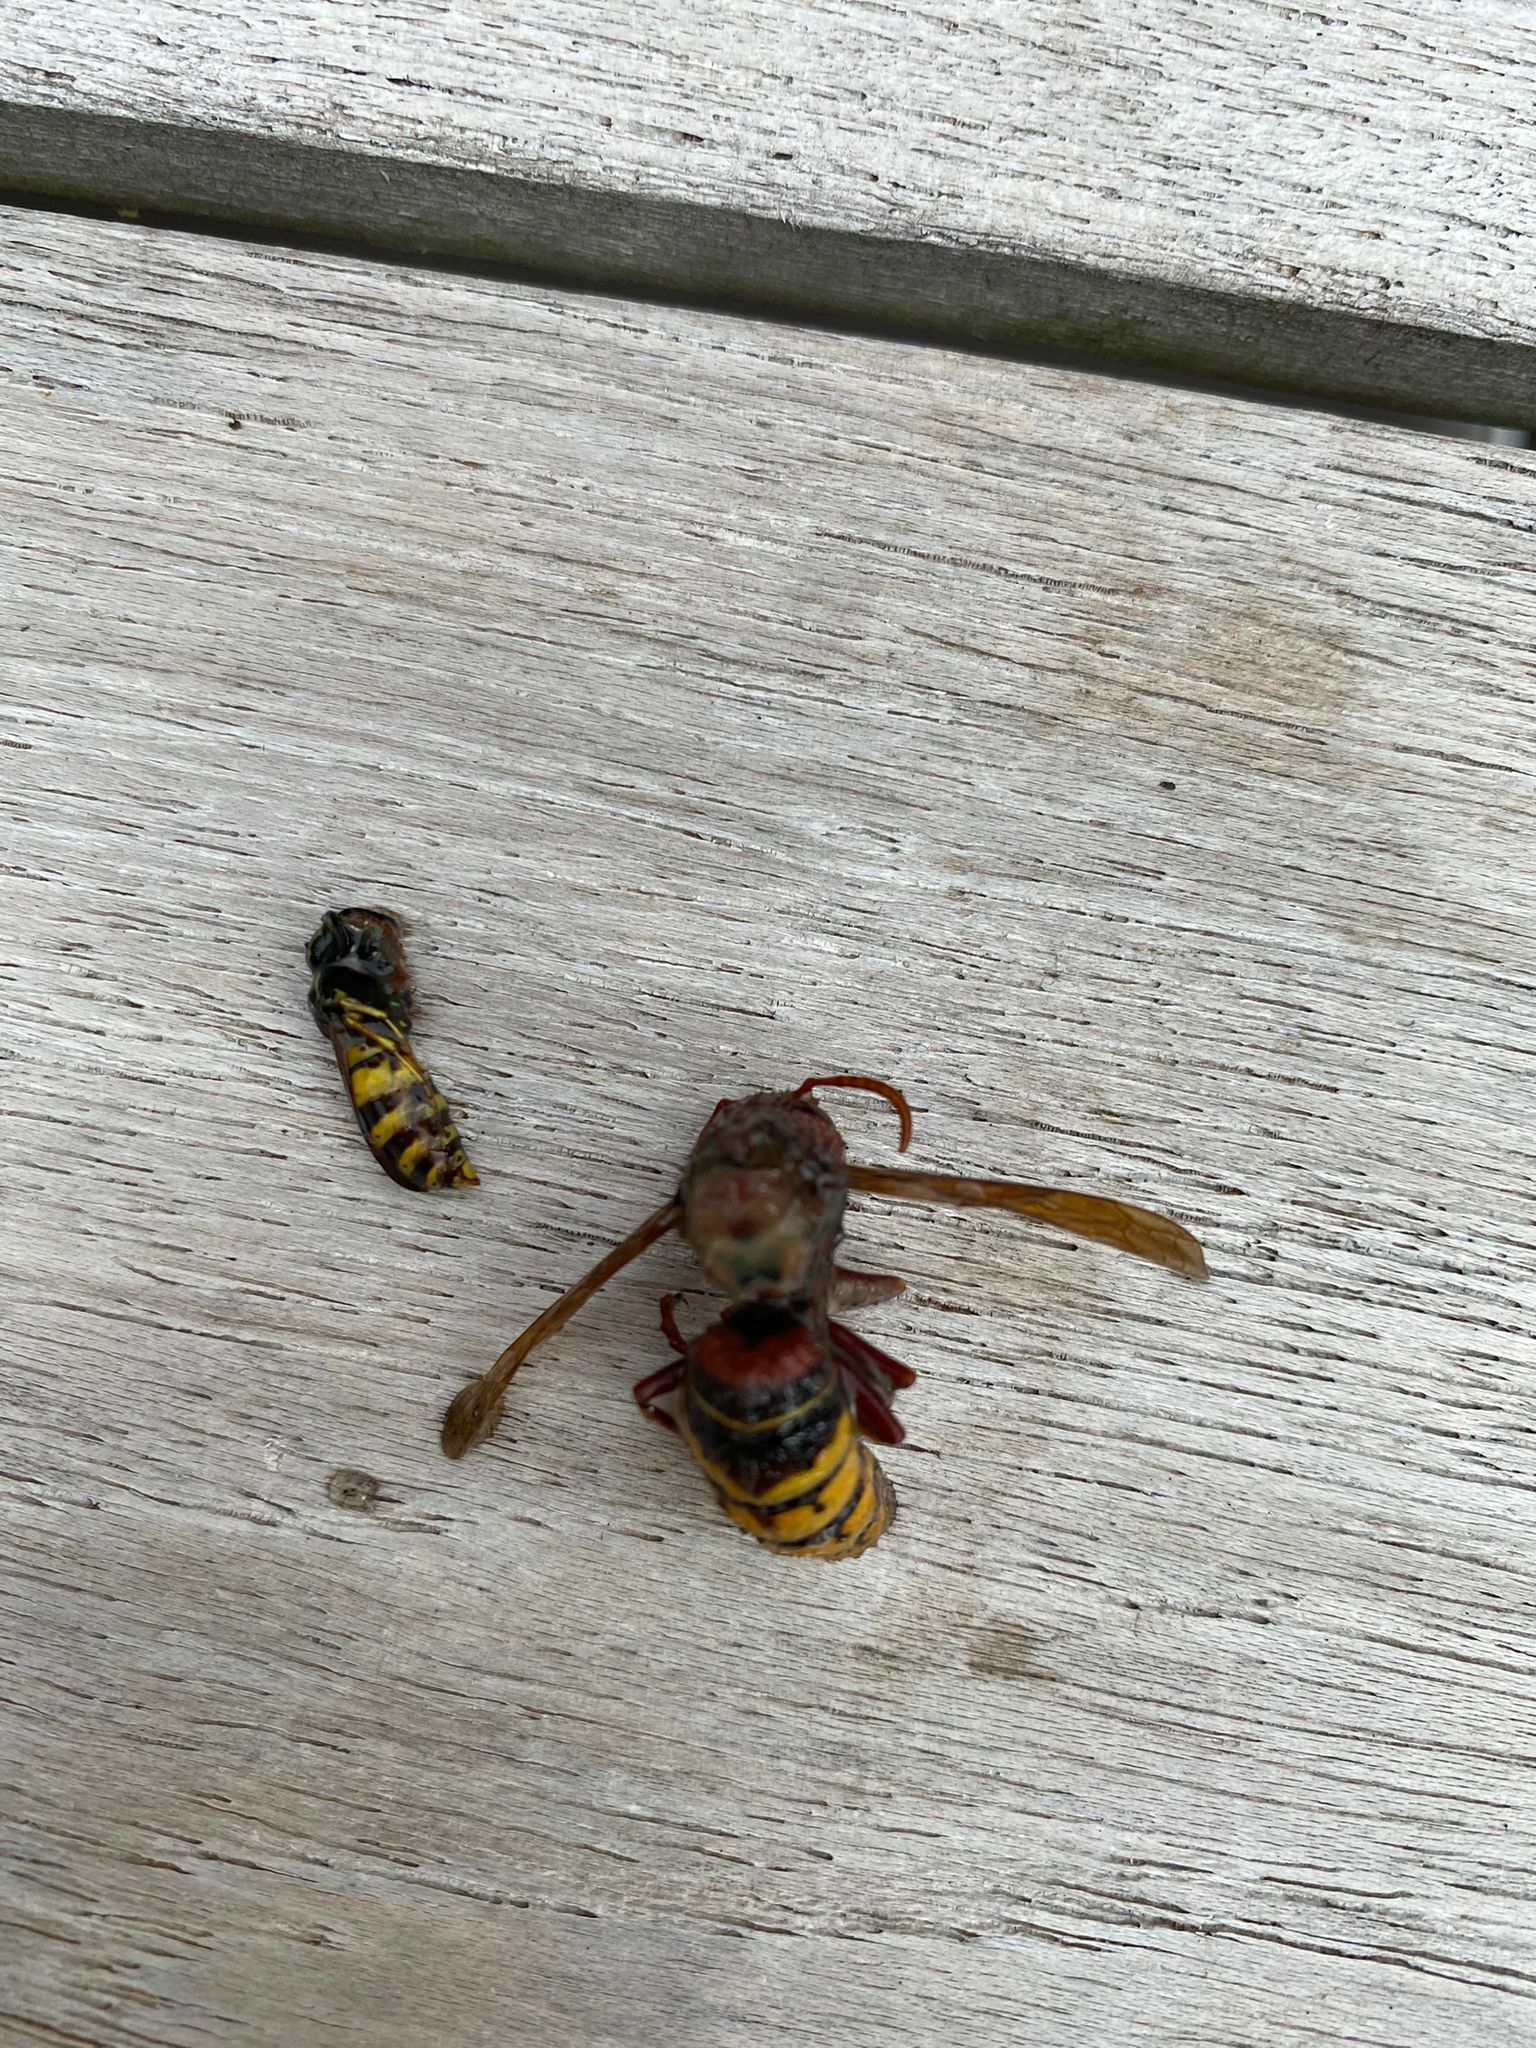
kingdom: Animalia
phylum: Arthropoda
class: Insecta
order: Hymenoptera
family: Vespidae
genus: Vespa
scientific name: Vespa crabro
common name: Hornet
